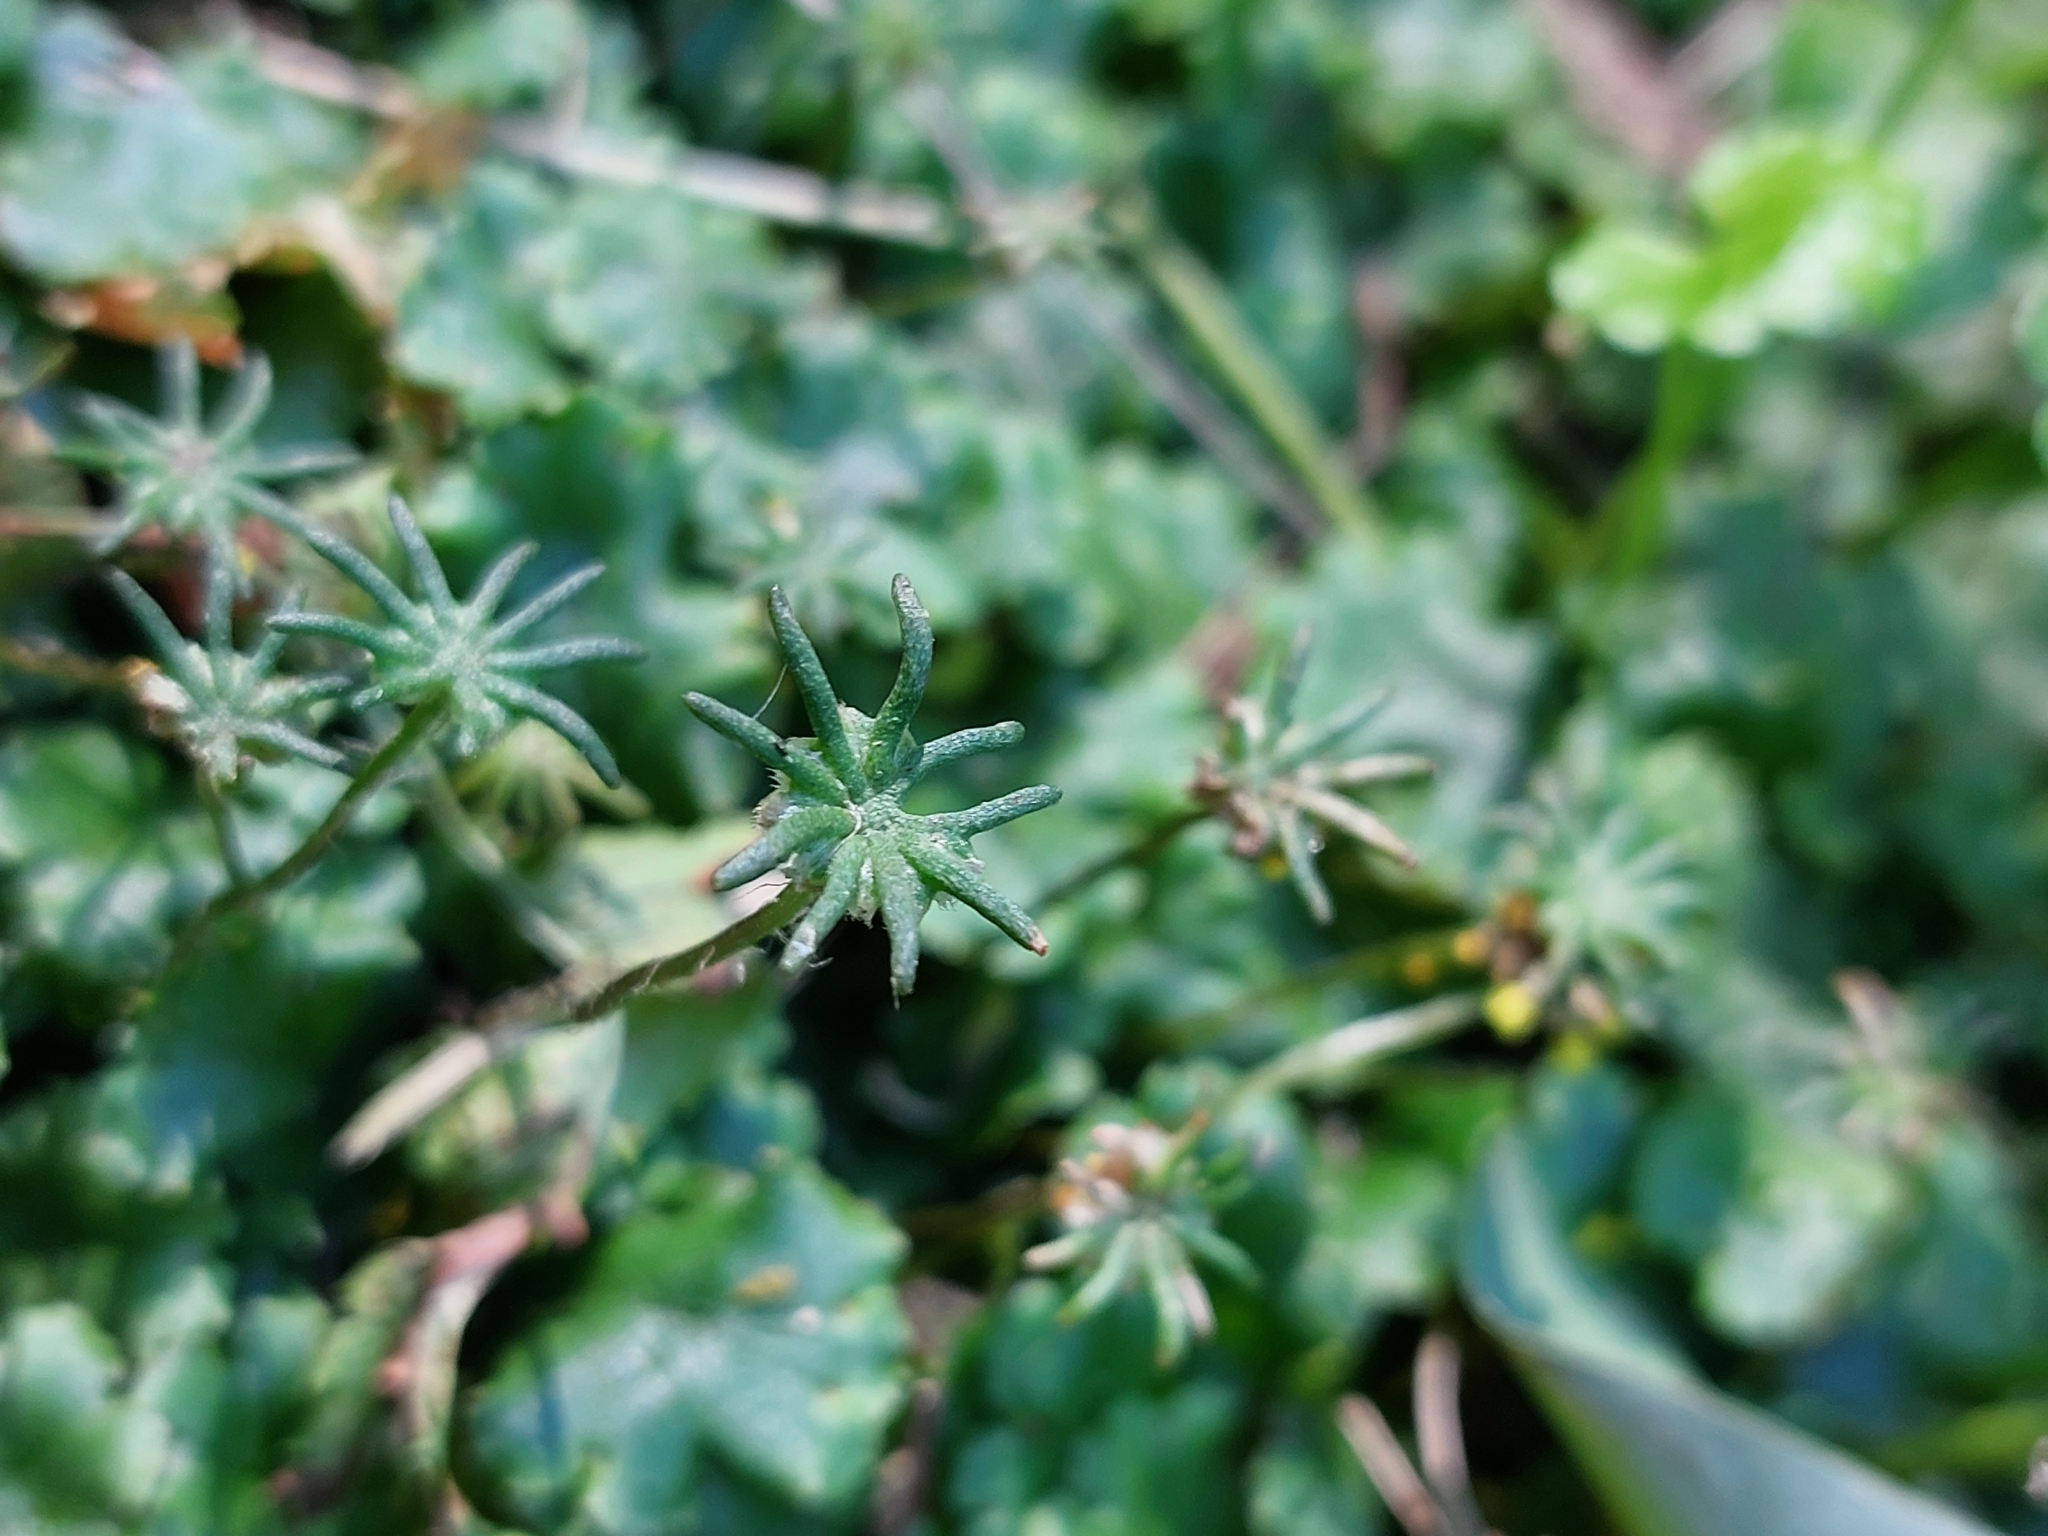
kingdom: Plantae
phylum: Marchantiophyta
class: Marchantiopsida
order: Marchantiales
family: Marchantiaceae
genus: Marchantia
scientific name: Marchantia polymorpha
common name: Common liverwort
